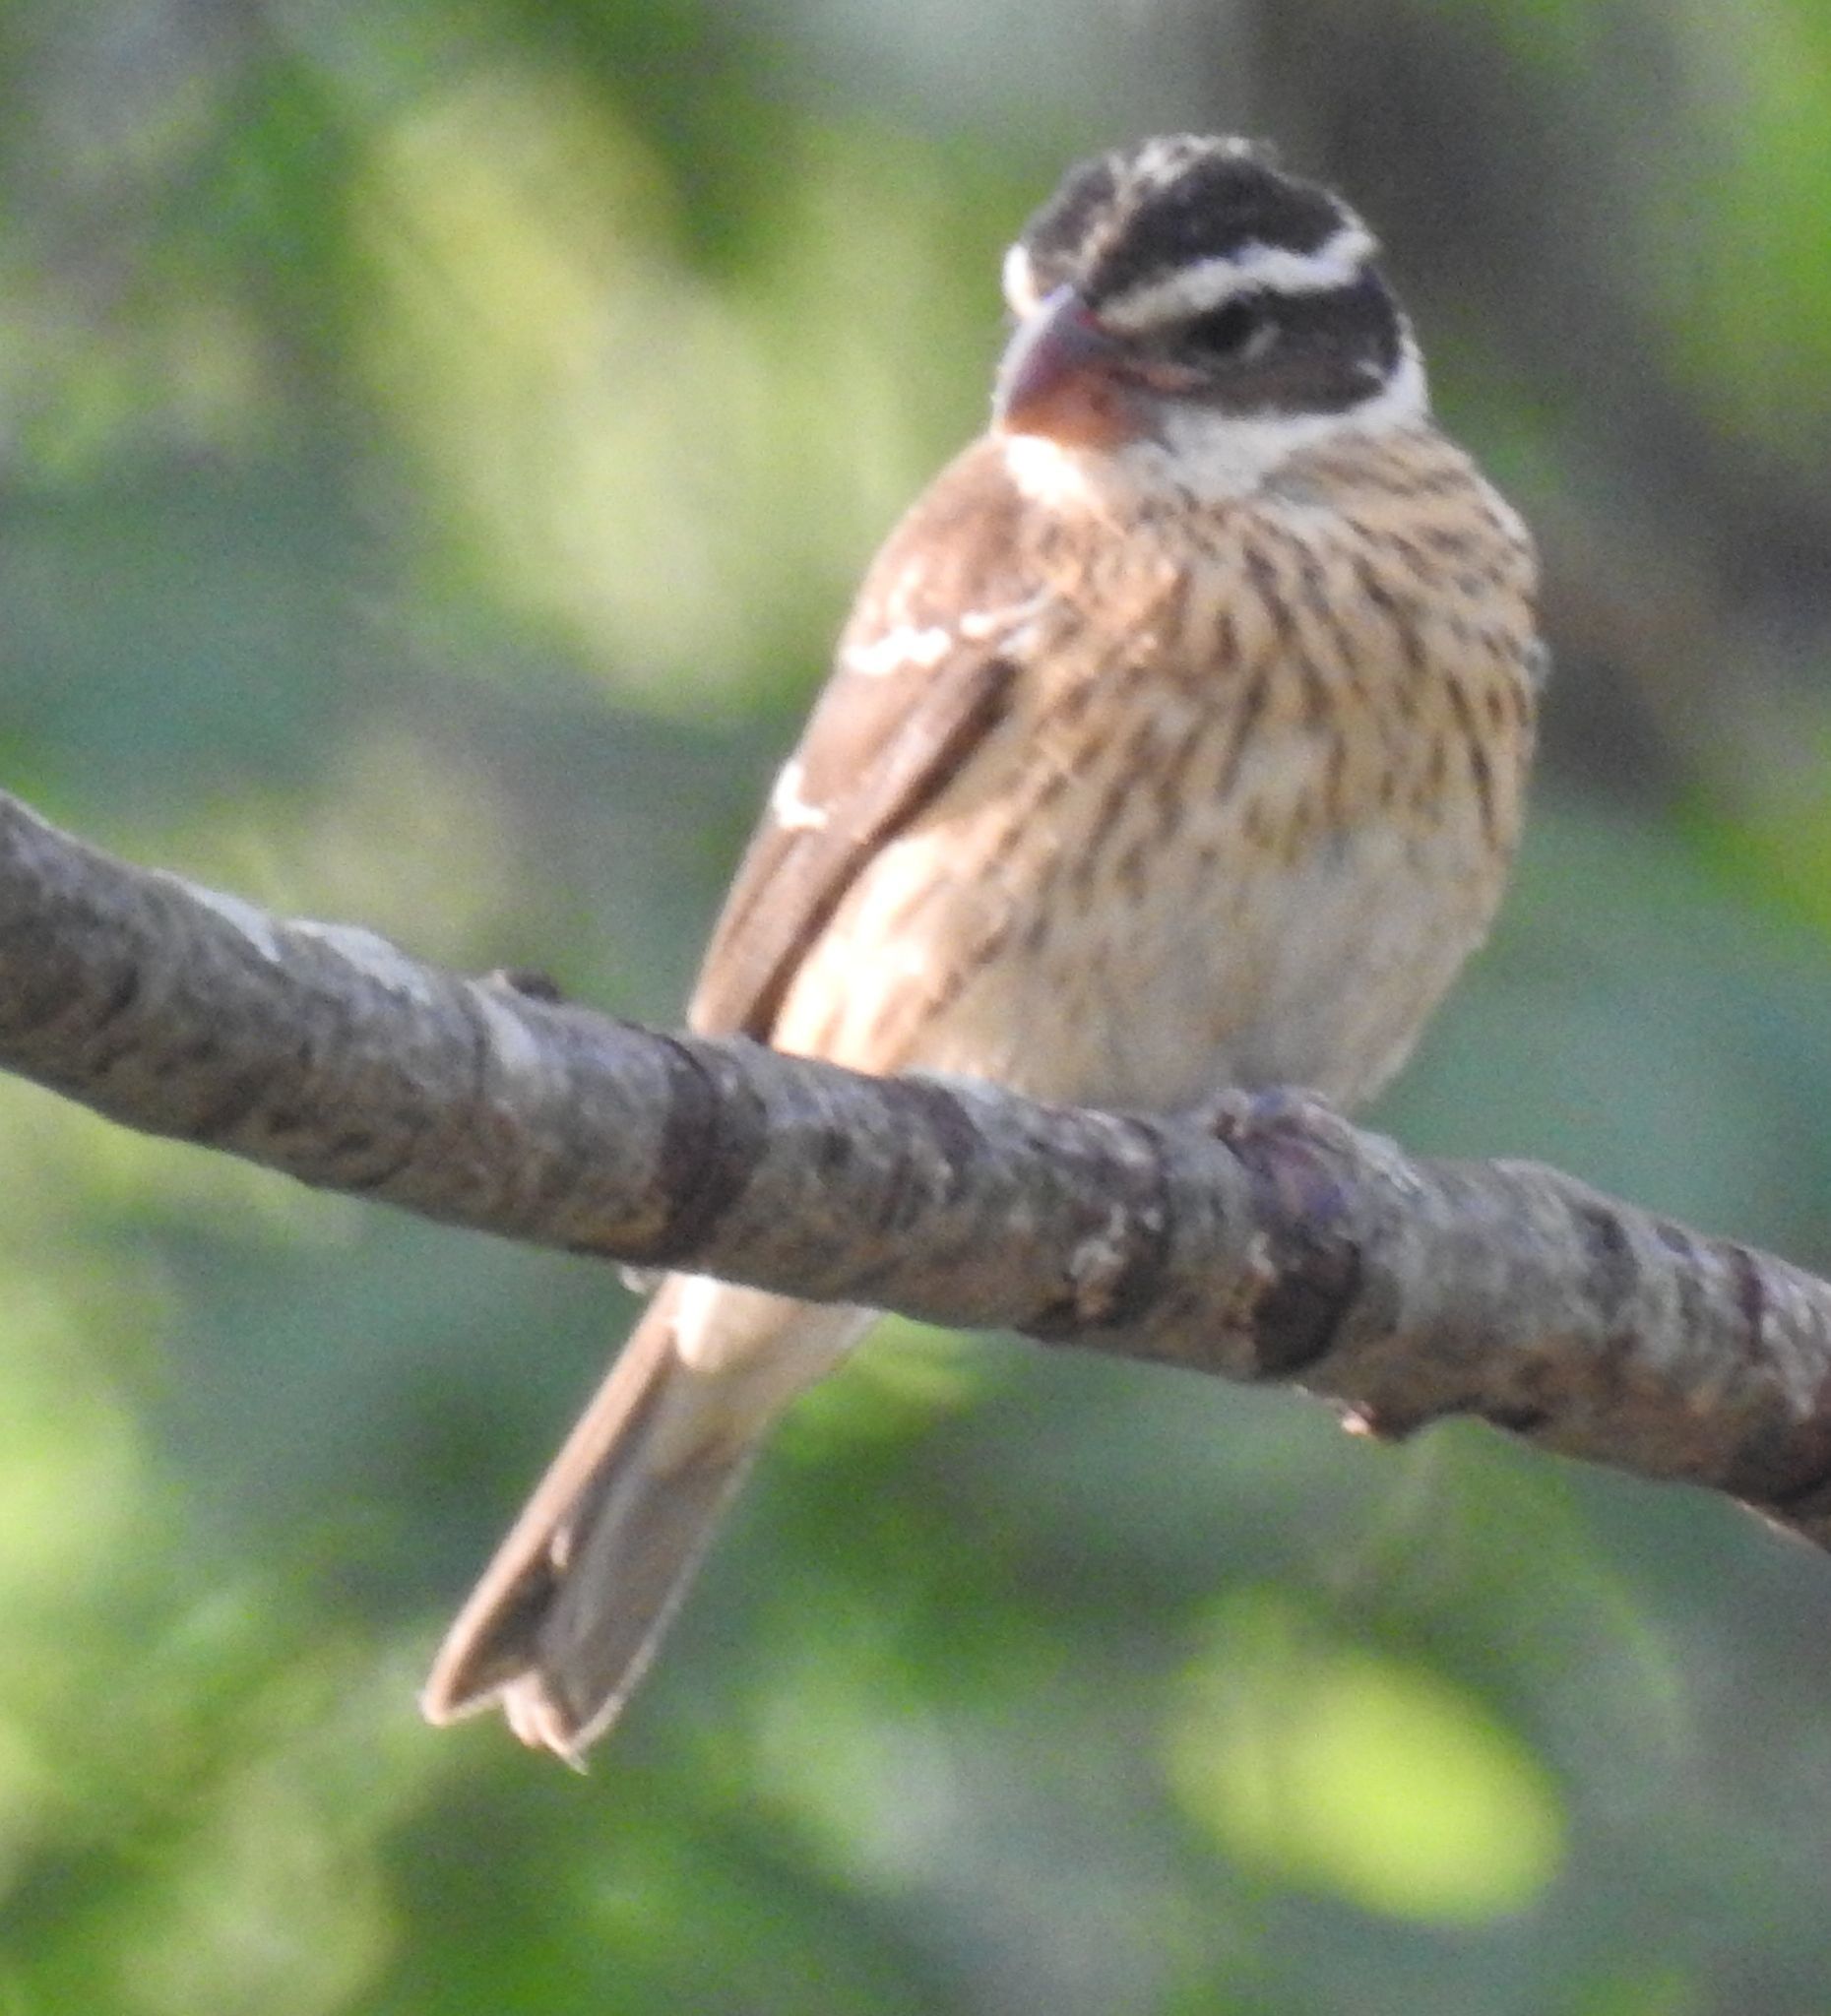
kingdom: Animalia
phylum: Chordata
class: Aves
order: Passeriformes
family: Cardinalidae
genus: Pheucticus
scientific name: Pheucticus ludovicianus
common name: Rose-breasted grosbeak
